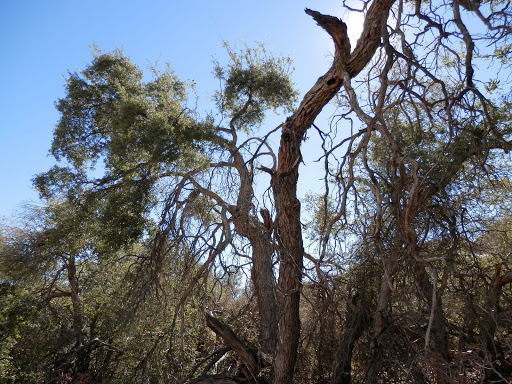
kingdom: Plantae
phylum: Tracheophyta
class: Magnoliopsida
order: Fagales
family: Fagaceae
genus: Quercus
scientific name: Quercus cornelius-mulleri
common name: Muller oak
